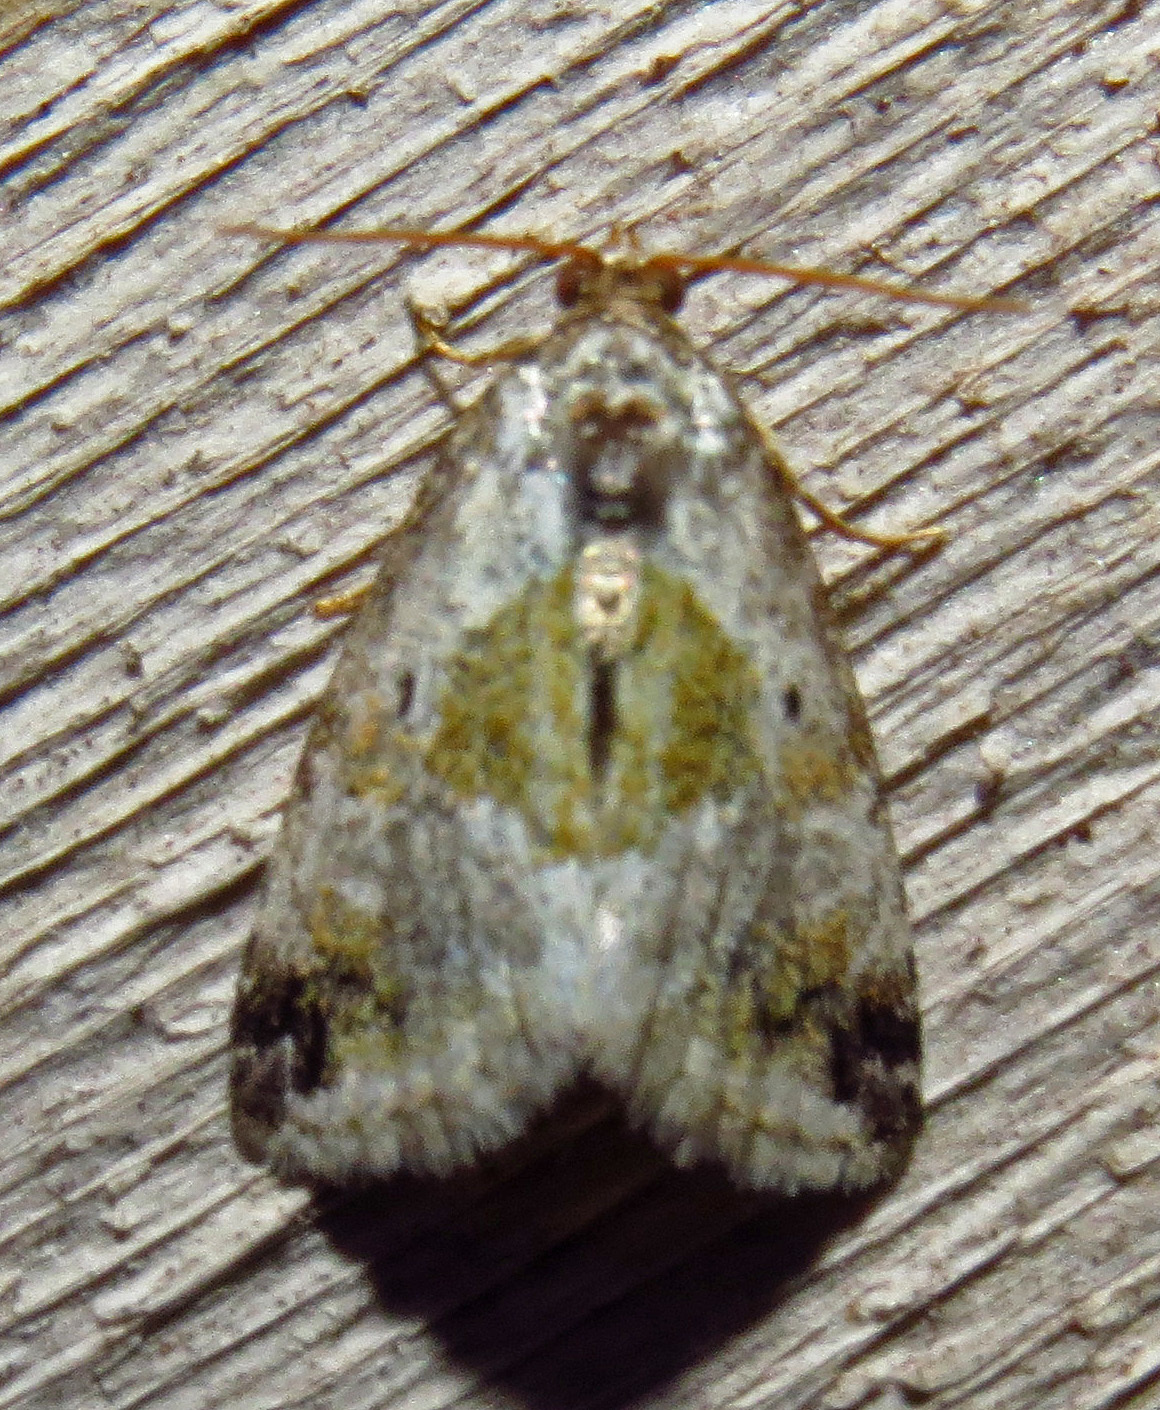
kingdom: Animalia
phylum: Arthropoda
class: Insecta
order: Lepidoptera
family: Noctuidae
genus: Maliattha
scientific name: Maliattha synochitis
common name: Black-dotted glyph
